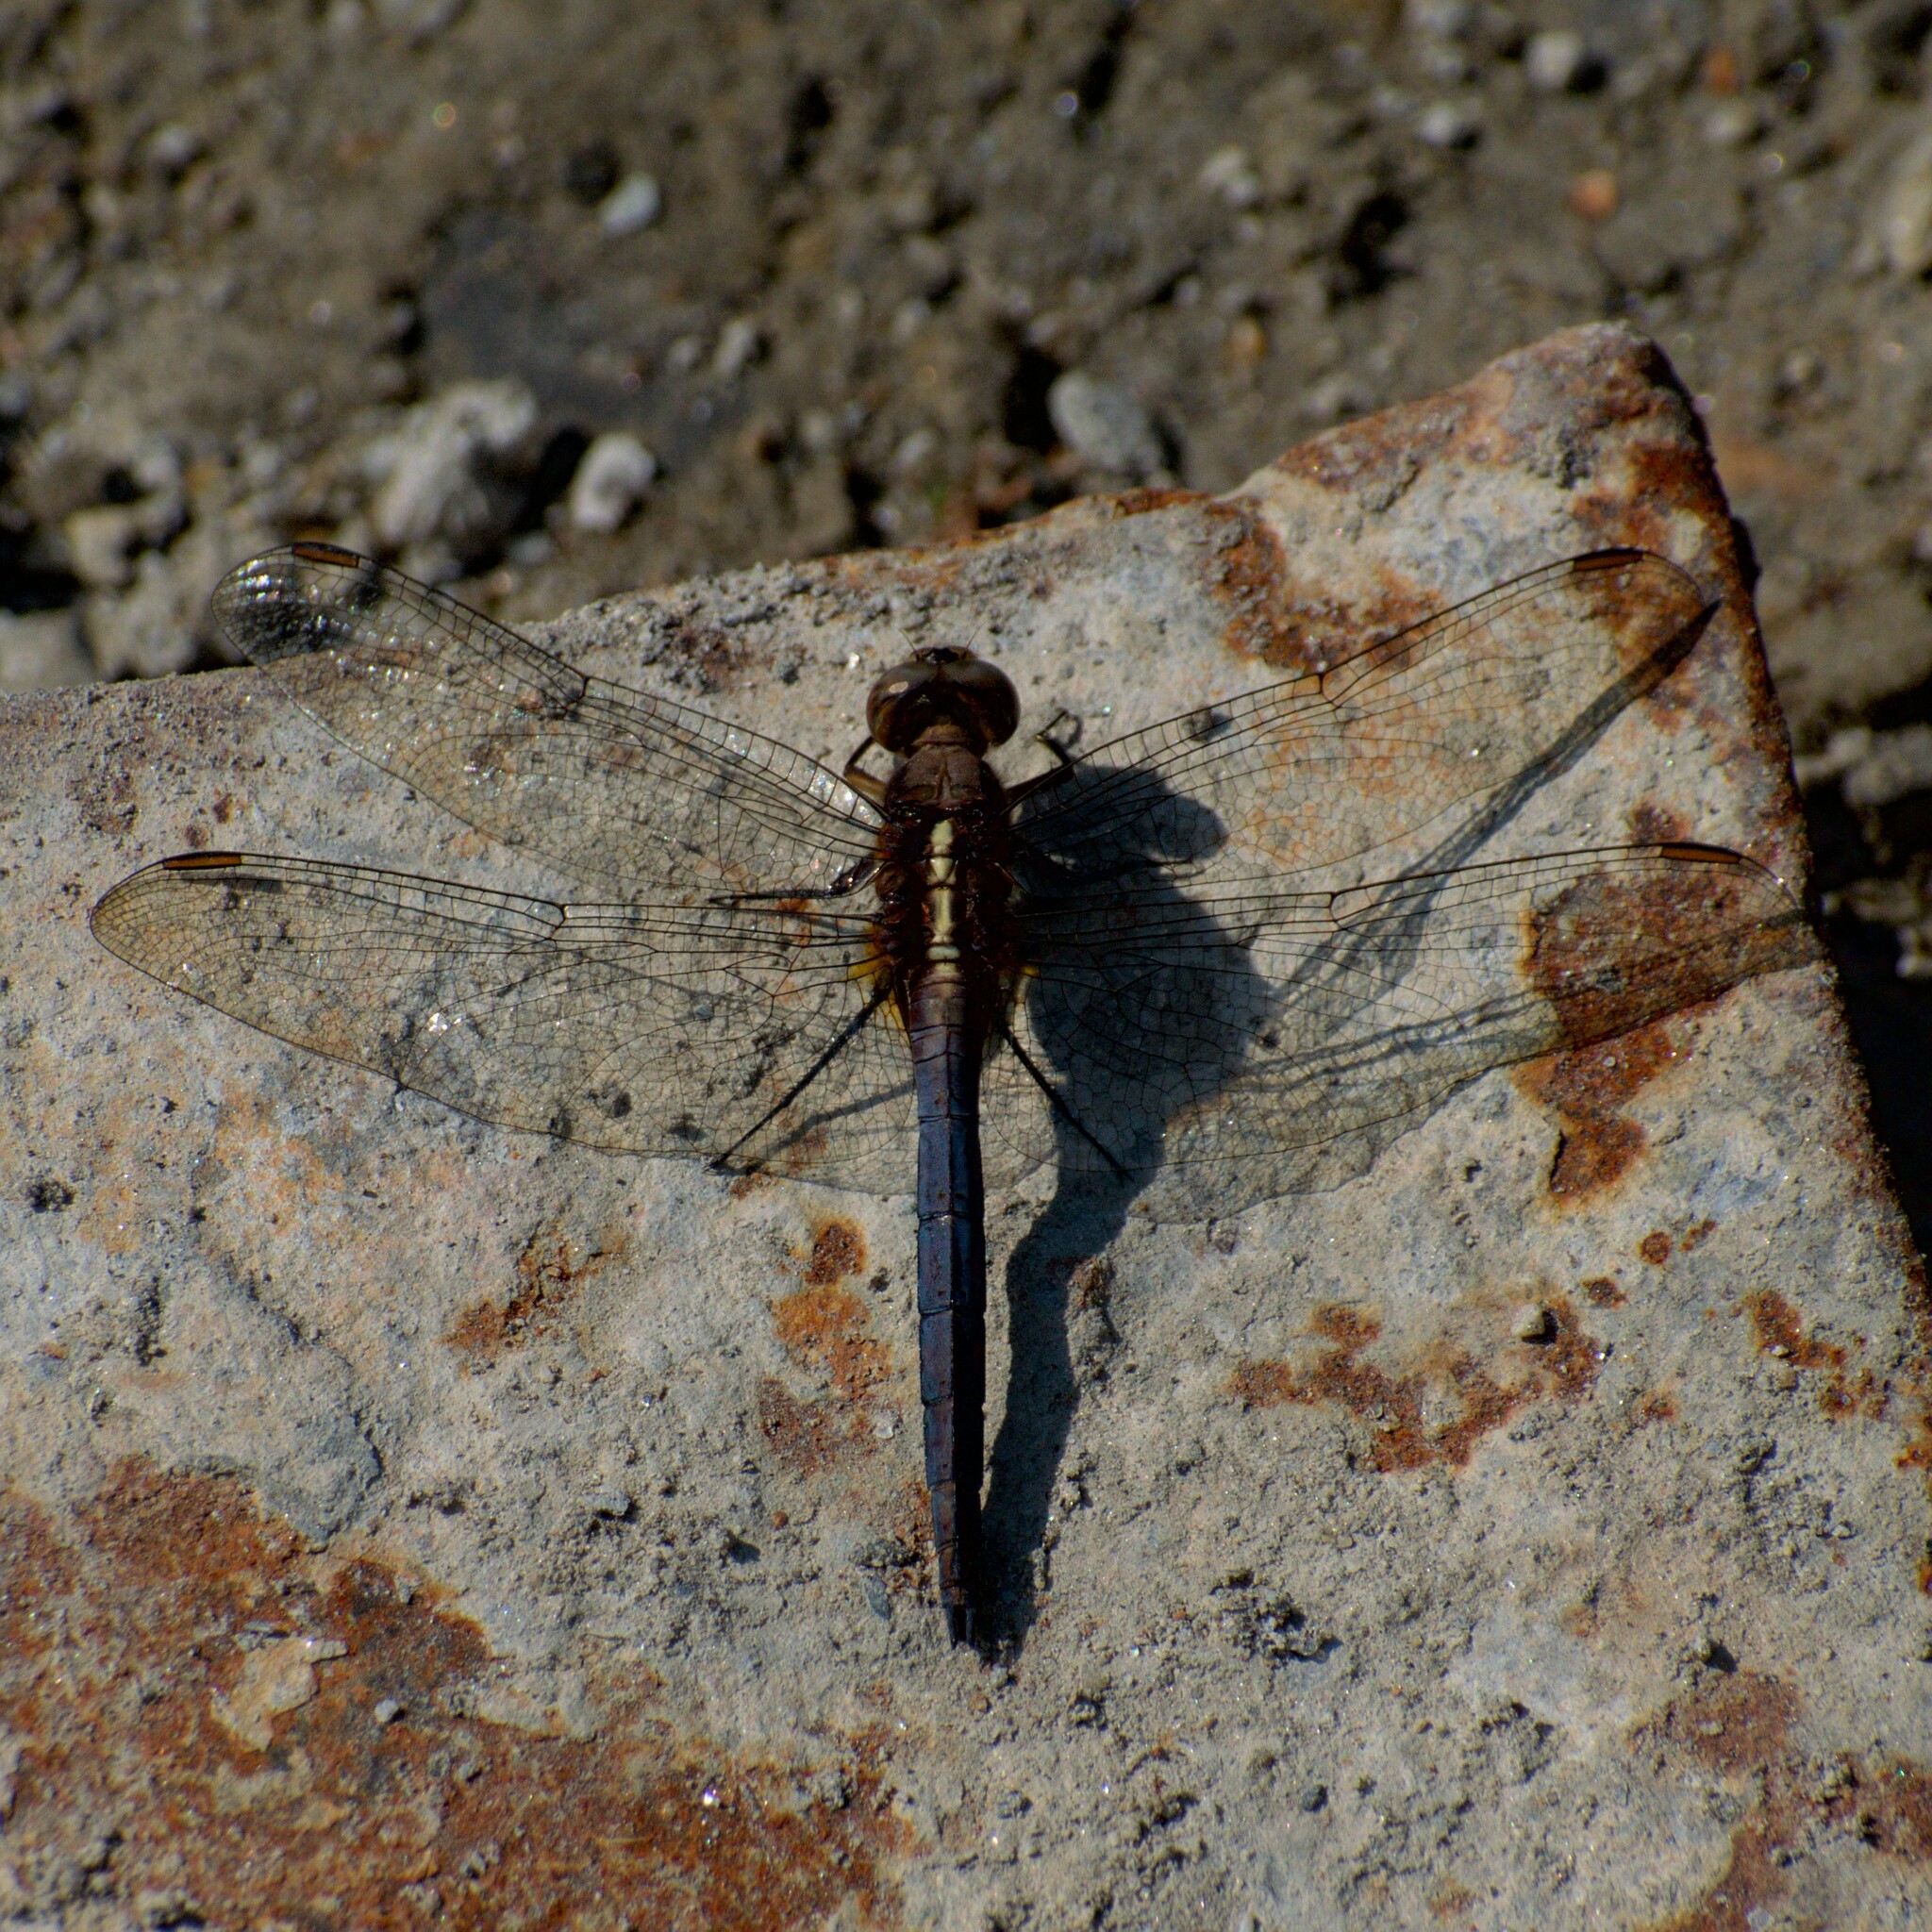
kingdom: Animalia
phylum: Arthropoda
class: Insecta
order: Odonata
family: Libellulidae
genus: Orthetrum
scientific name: Orthetrum glaucum
